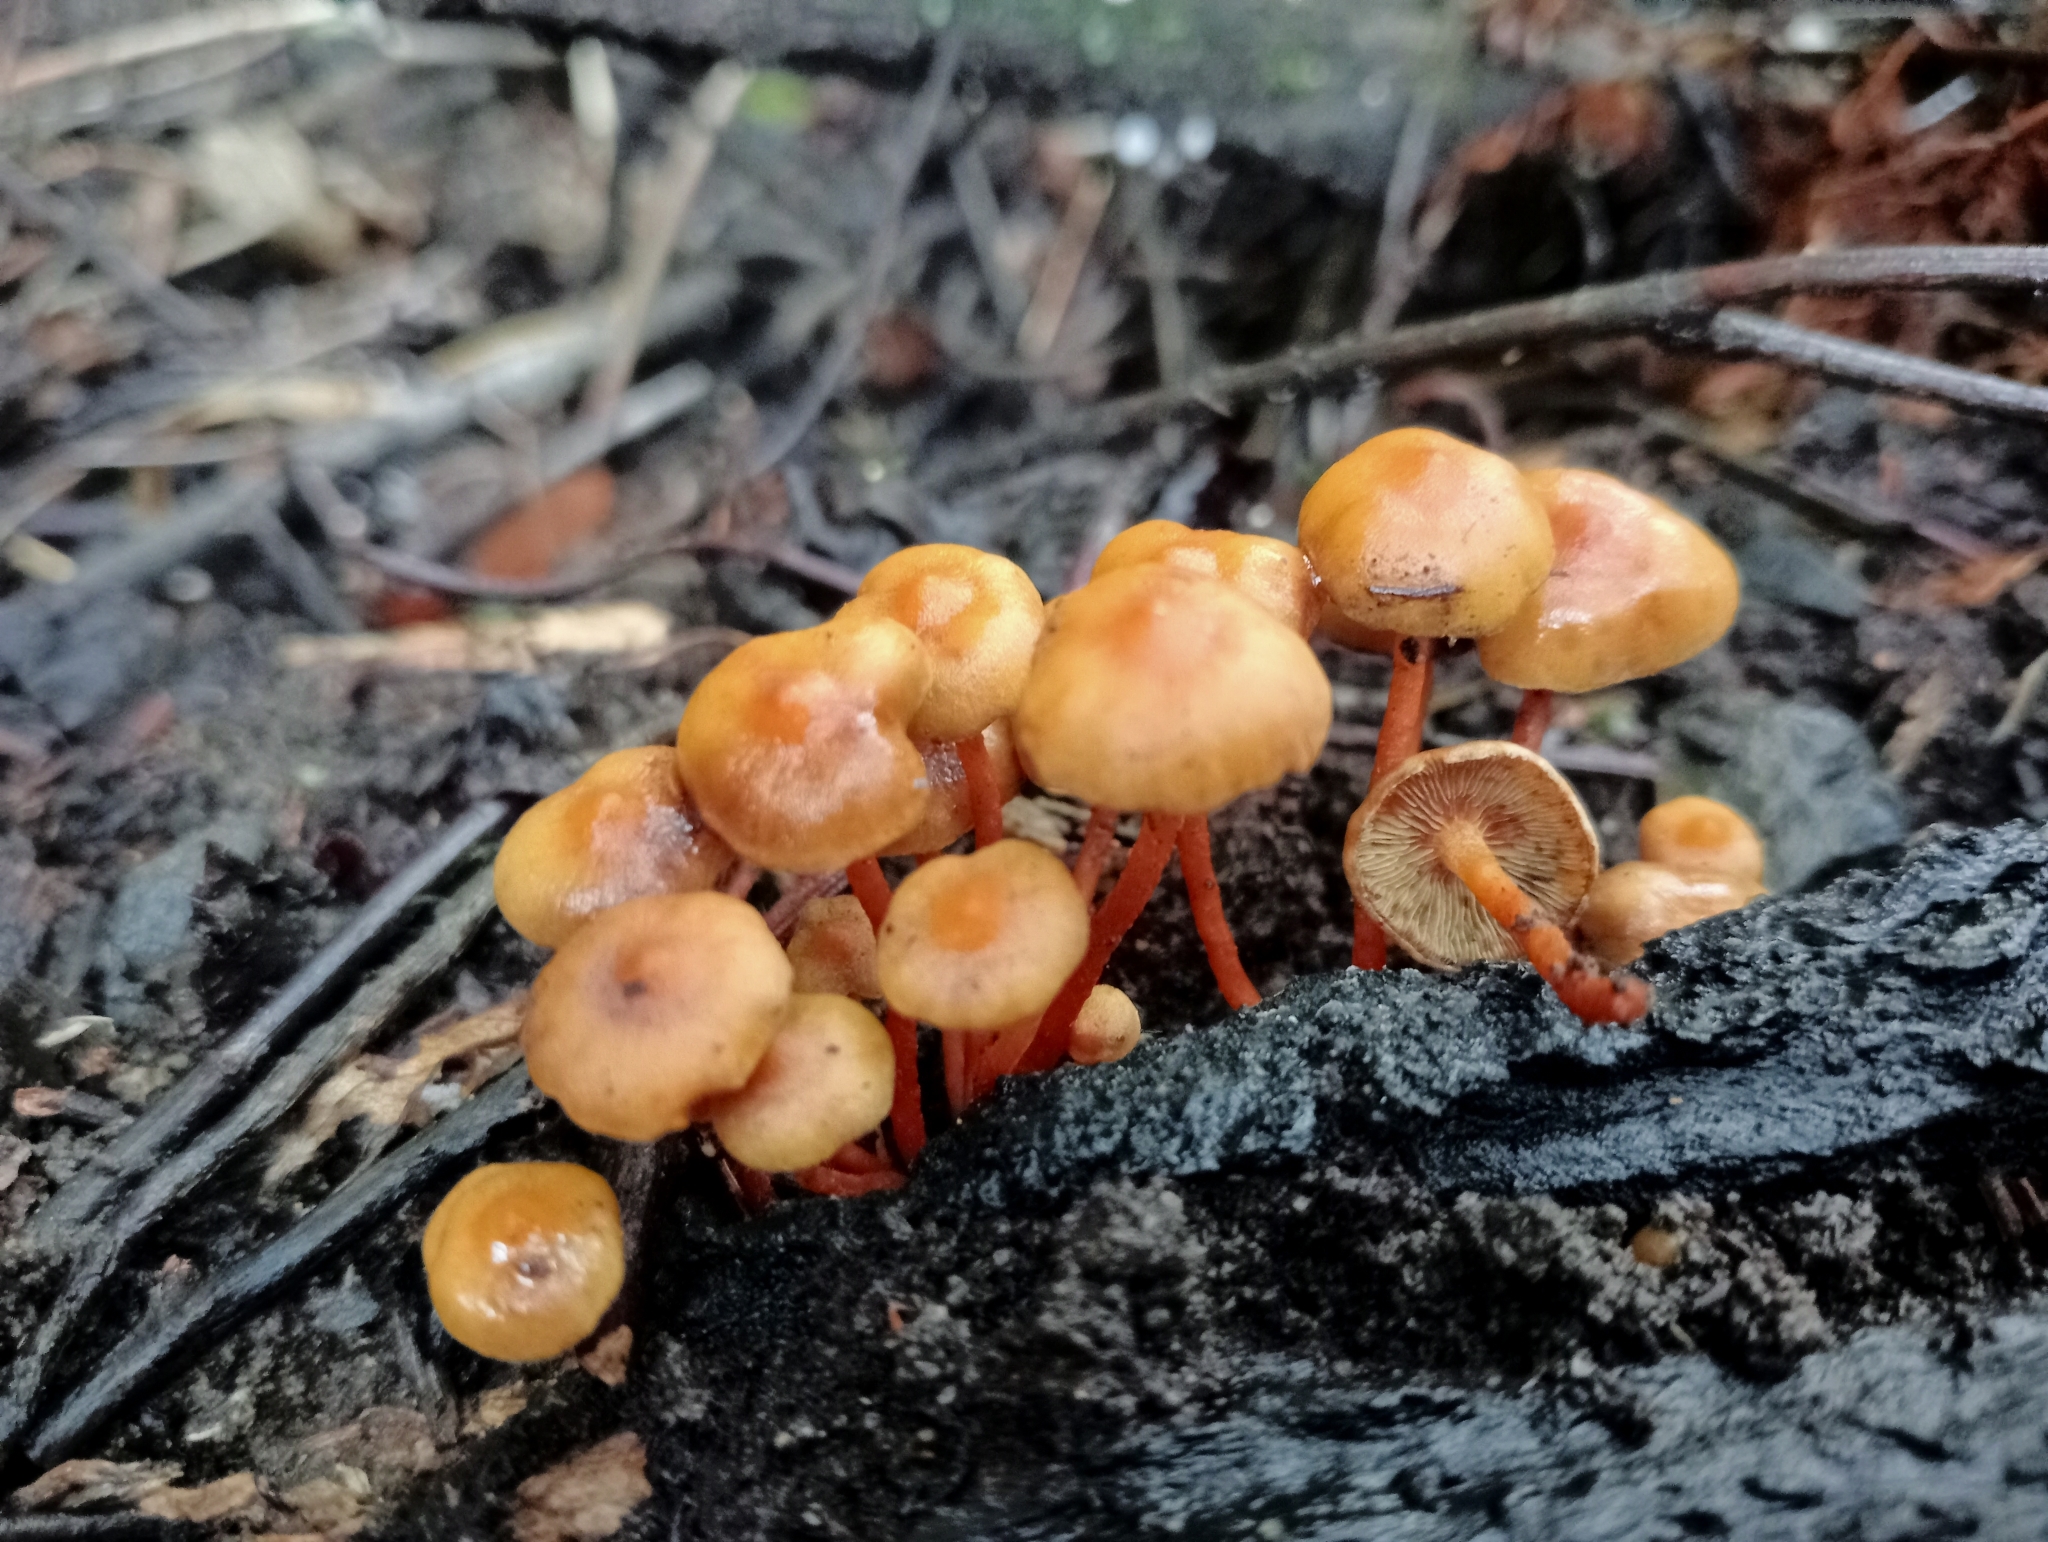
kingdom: Fungi
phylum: Basidiomycota
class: Agaricomycetes
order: Agaricales
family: Strophariaceae
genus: Hypholoma
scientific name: Hypholoma acutum
